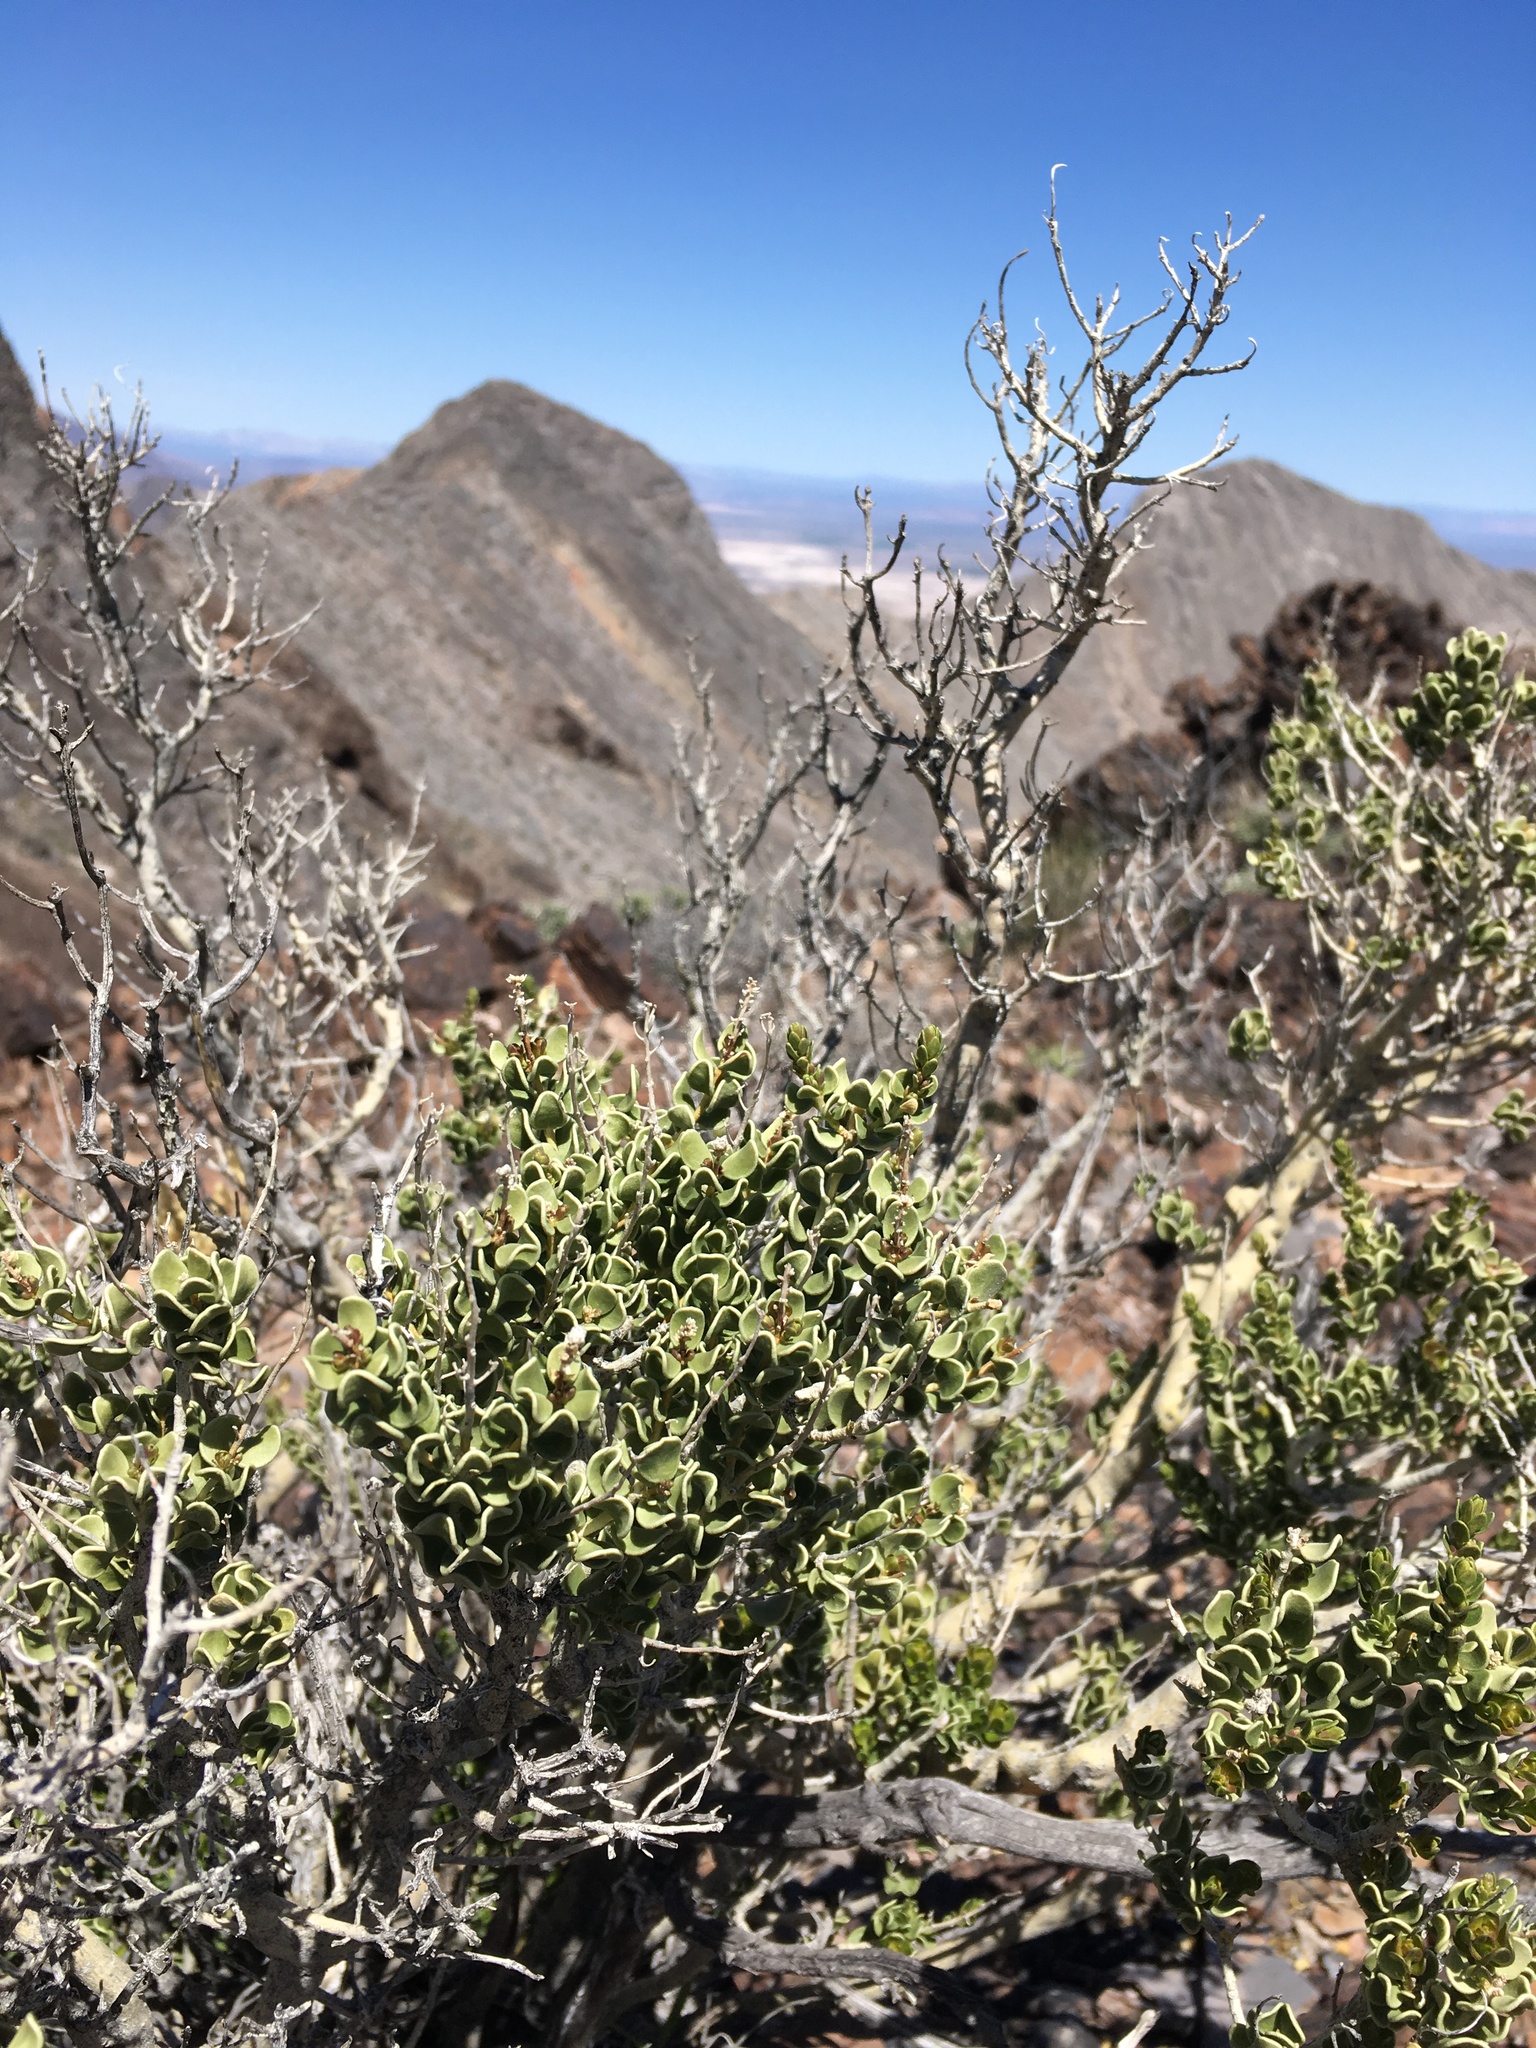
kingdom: Plantae
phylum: Tracheophyta
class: Magnoliopsida
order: Celastrales
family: Celastraceae
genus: Mortonia
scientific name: Mortonia utahensis
